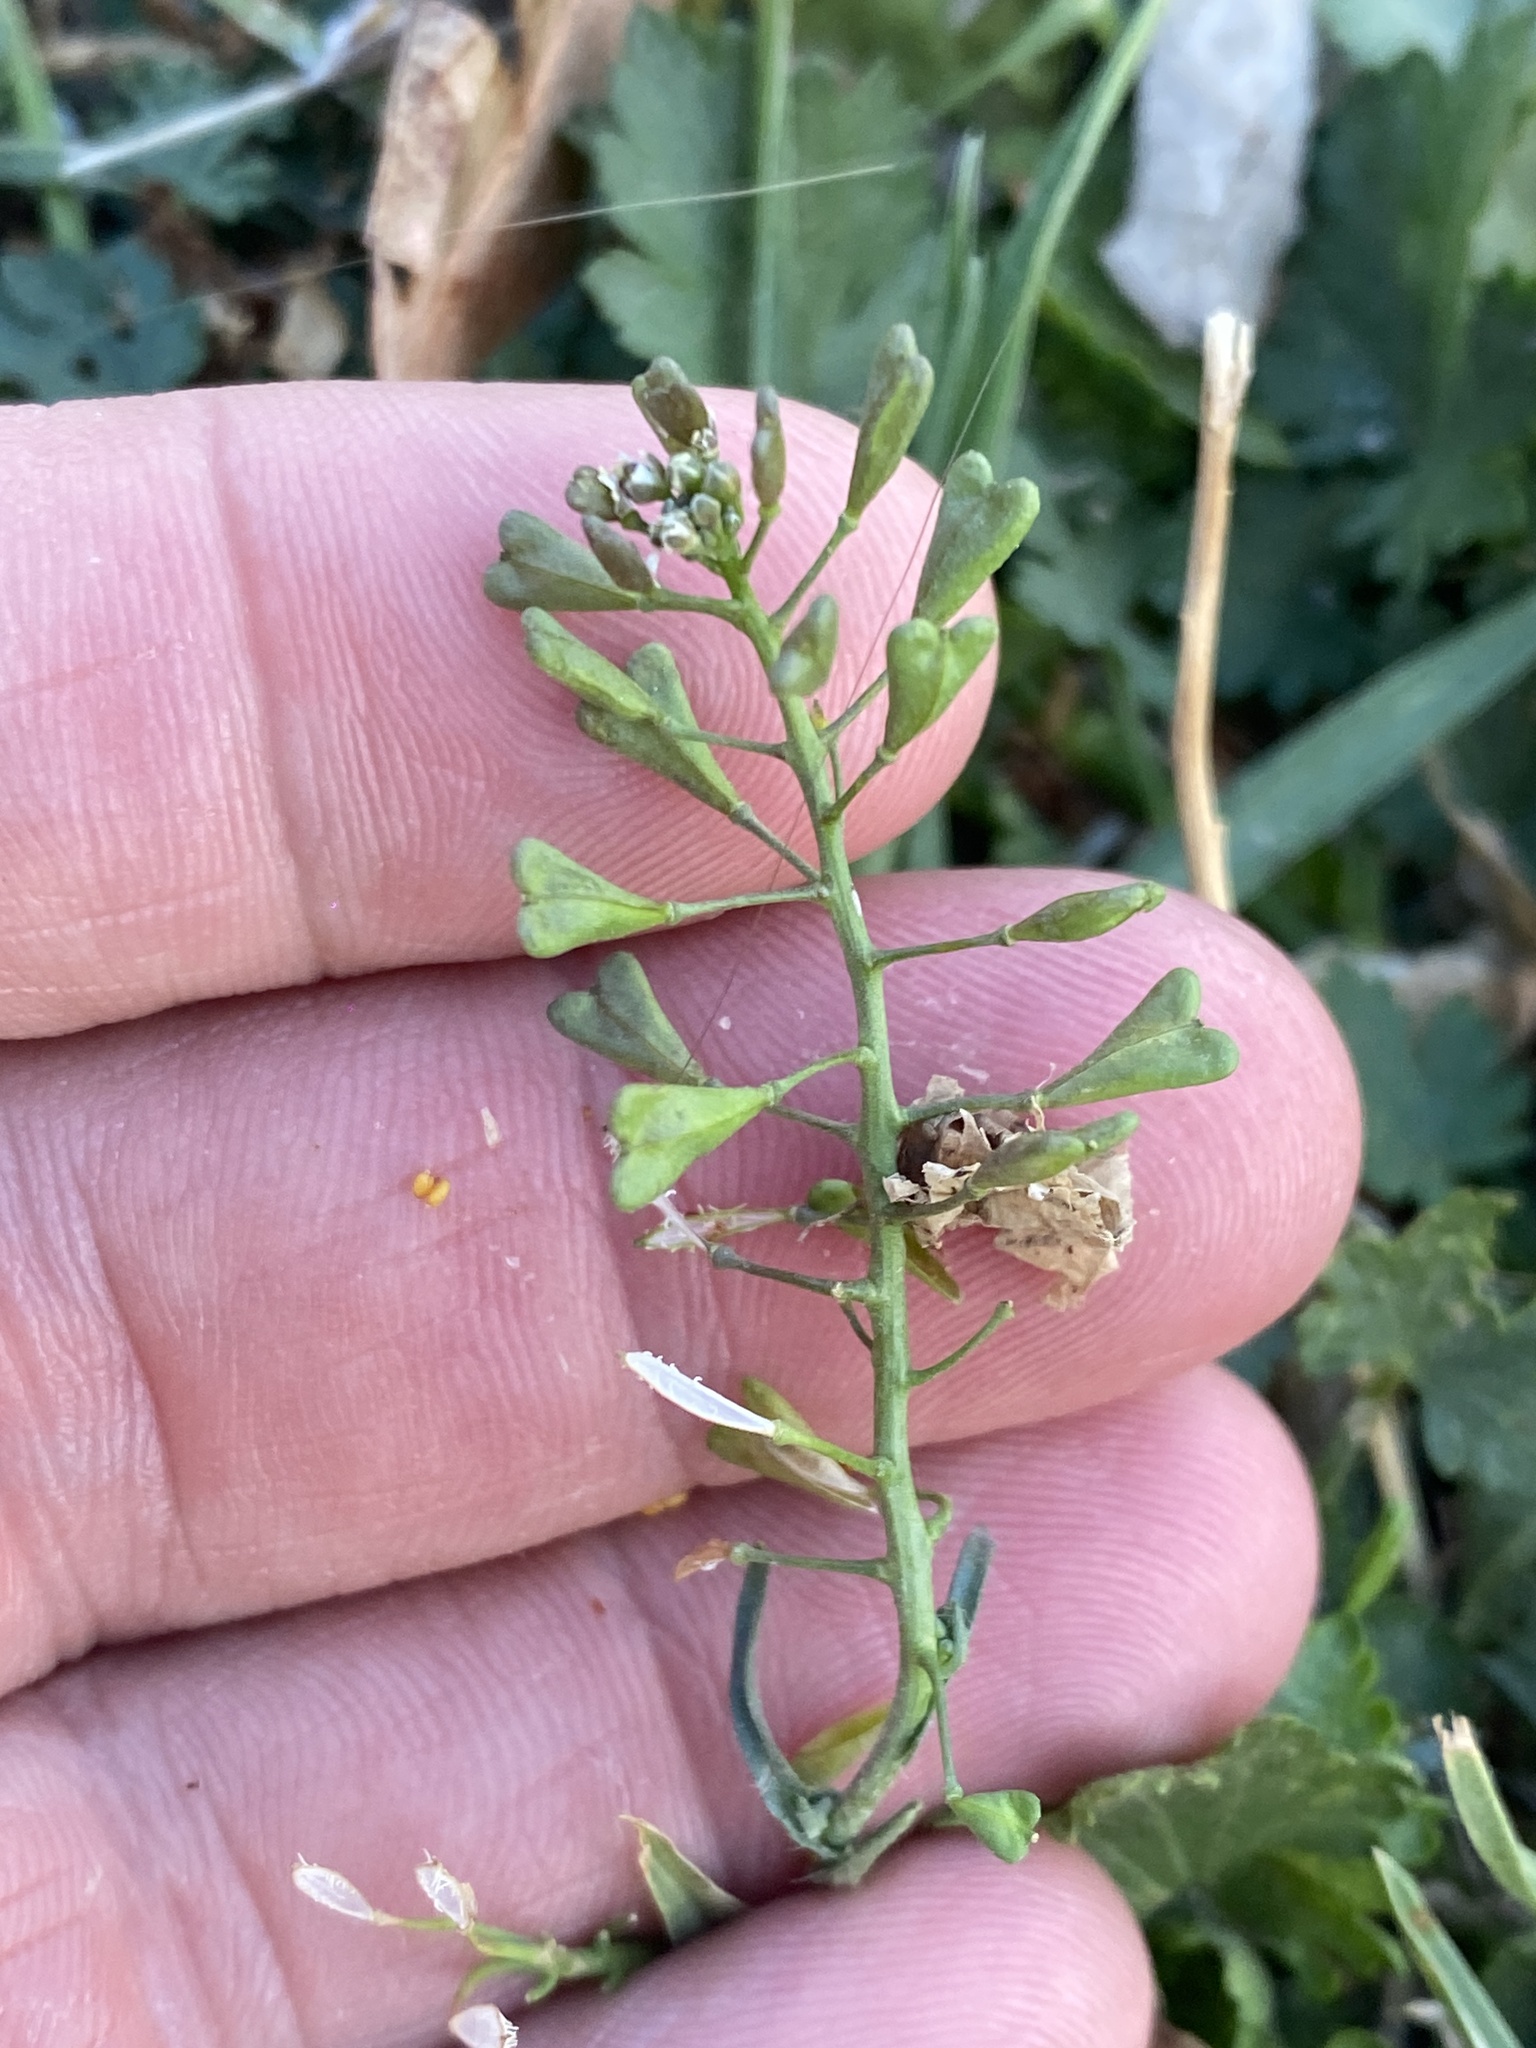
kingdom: Plantae
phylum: Tracheophyta
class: Magnoliopsida
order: Brassicales
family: Brassicaceae
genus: Capsella
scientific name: Capsella bursa-pastoris
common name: Shepherd's purse
